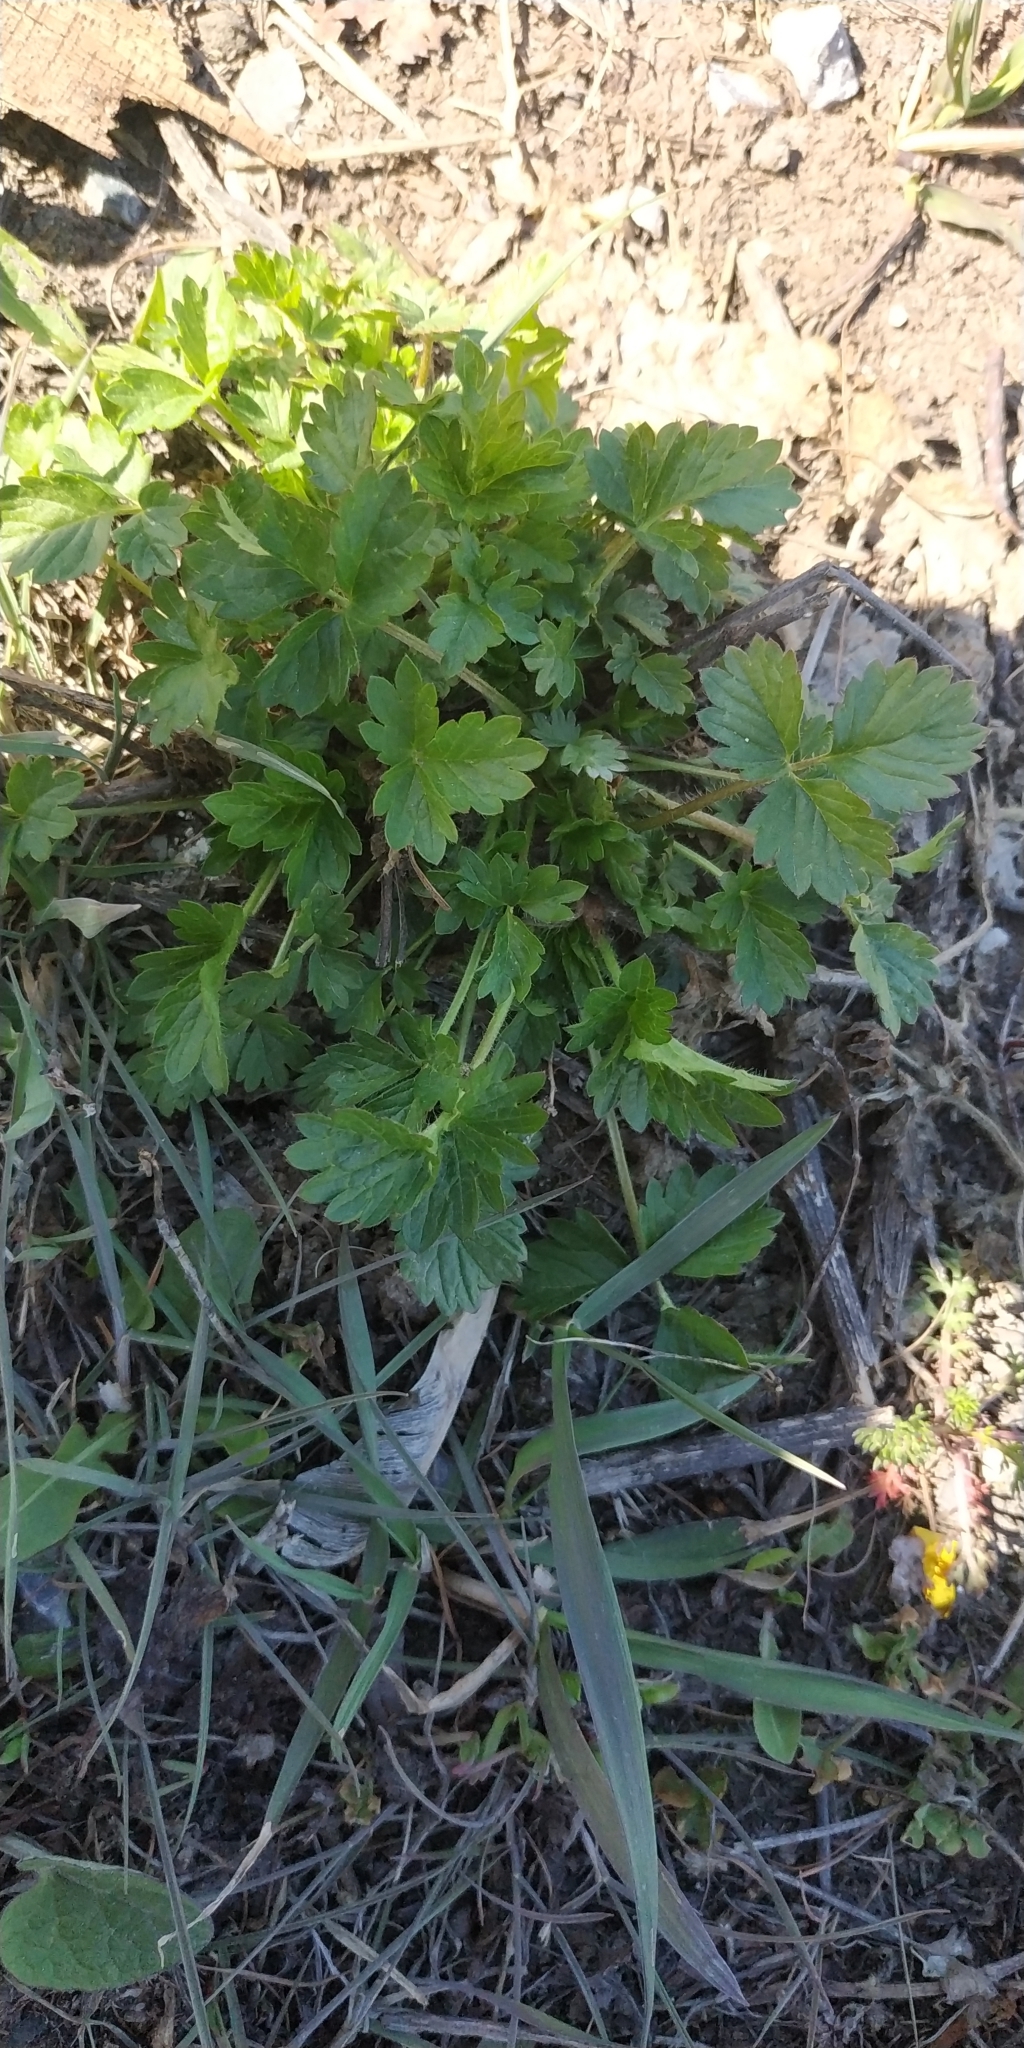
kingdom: Plantae
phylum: Tracheophyta
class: Magnoliopsida
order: Rosales
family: Rosaceae
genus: Potentilla
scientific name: Potentilla norvegica
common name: Ternate-leaved cinquefoil
